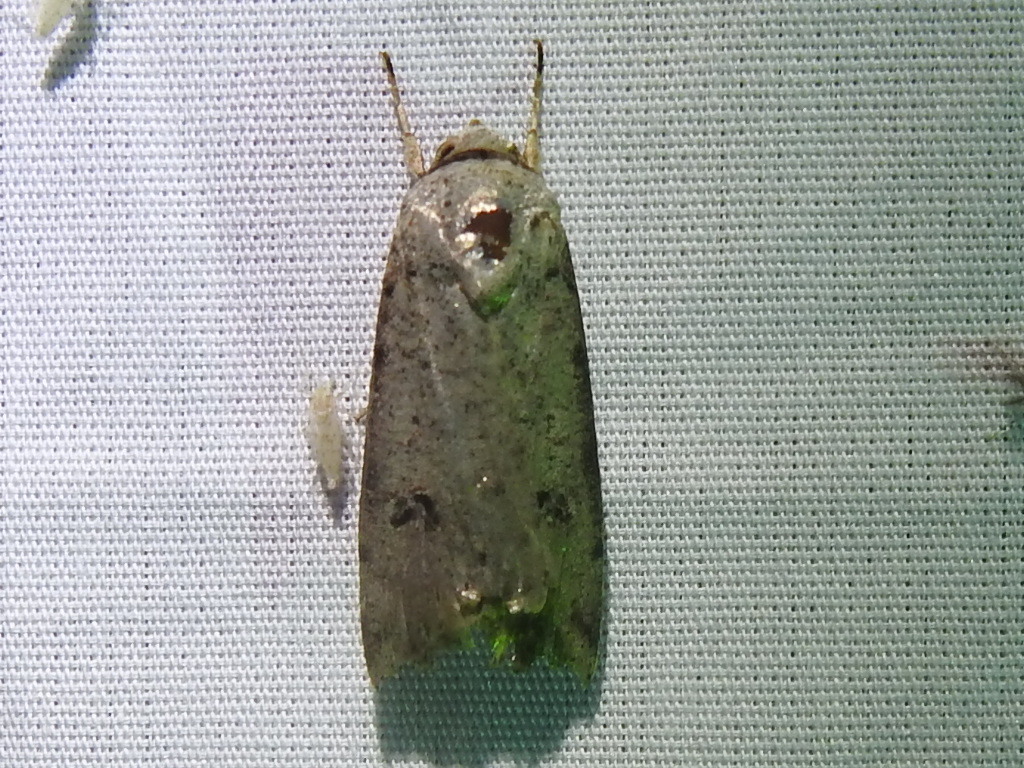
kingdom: Animalia
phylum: Arthropoda
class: Insecta
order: Lepidoptera
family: Noctuidae
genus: Anicla
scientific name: Anicla infecta
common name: Green cutworm
